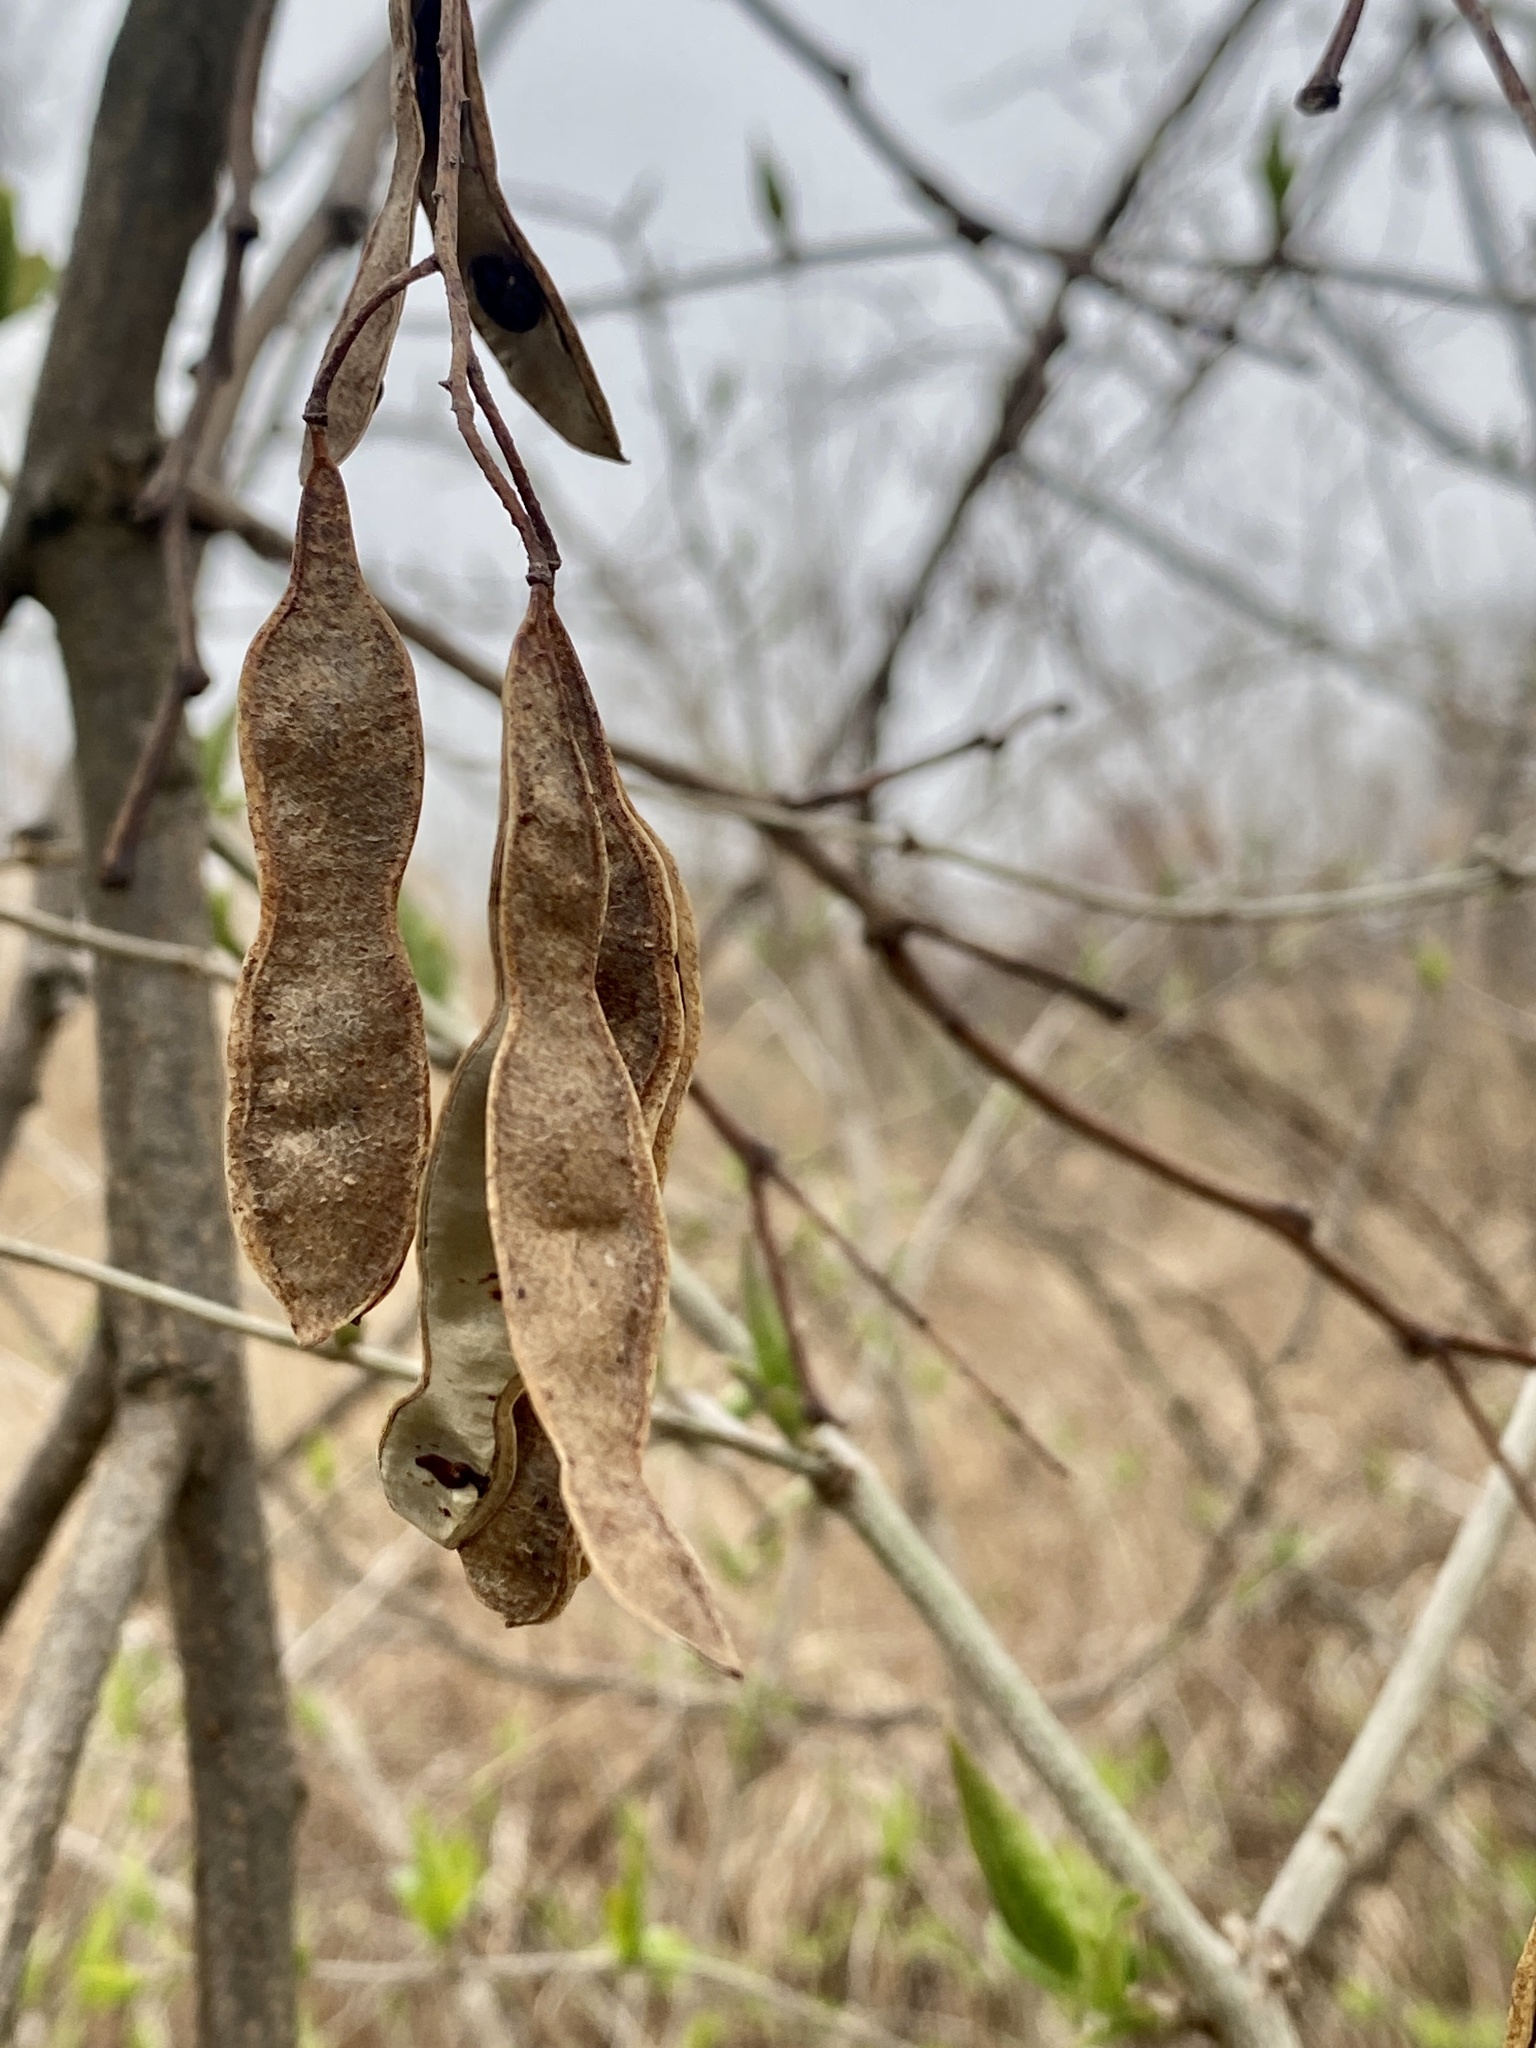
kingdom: Plantae
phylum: Tracheophyta
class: Magnoliopsida
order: Fabales
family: Fabaceae
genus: Robinia
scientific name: Robinia pseudoacacia
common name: Black locust
